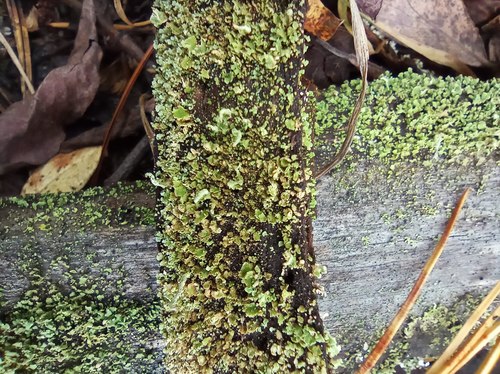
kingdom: Fungi
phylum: Ascomycota
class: Lecanoromycetes
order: Lecanorales
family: Cladoniaceae
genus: Cladonia
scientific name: Cladonia pyxidata
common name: Pebbled pixie cup
